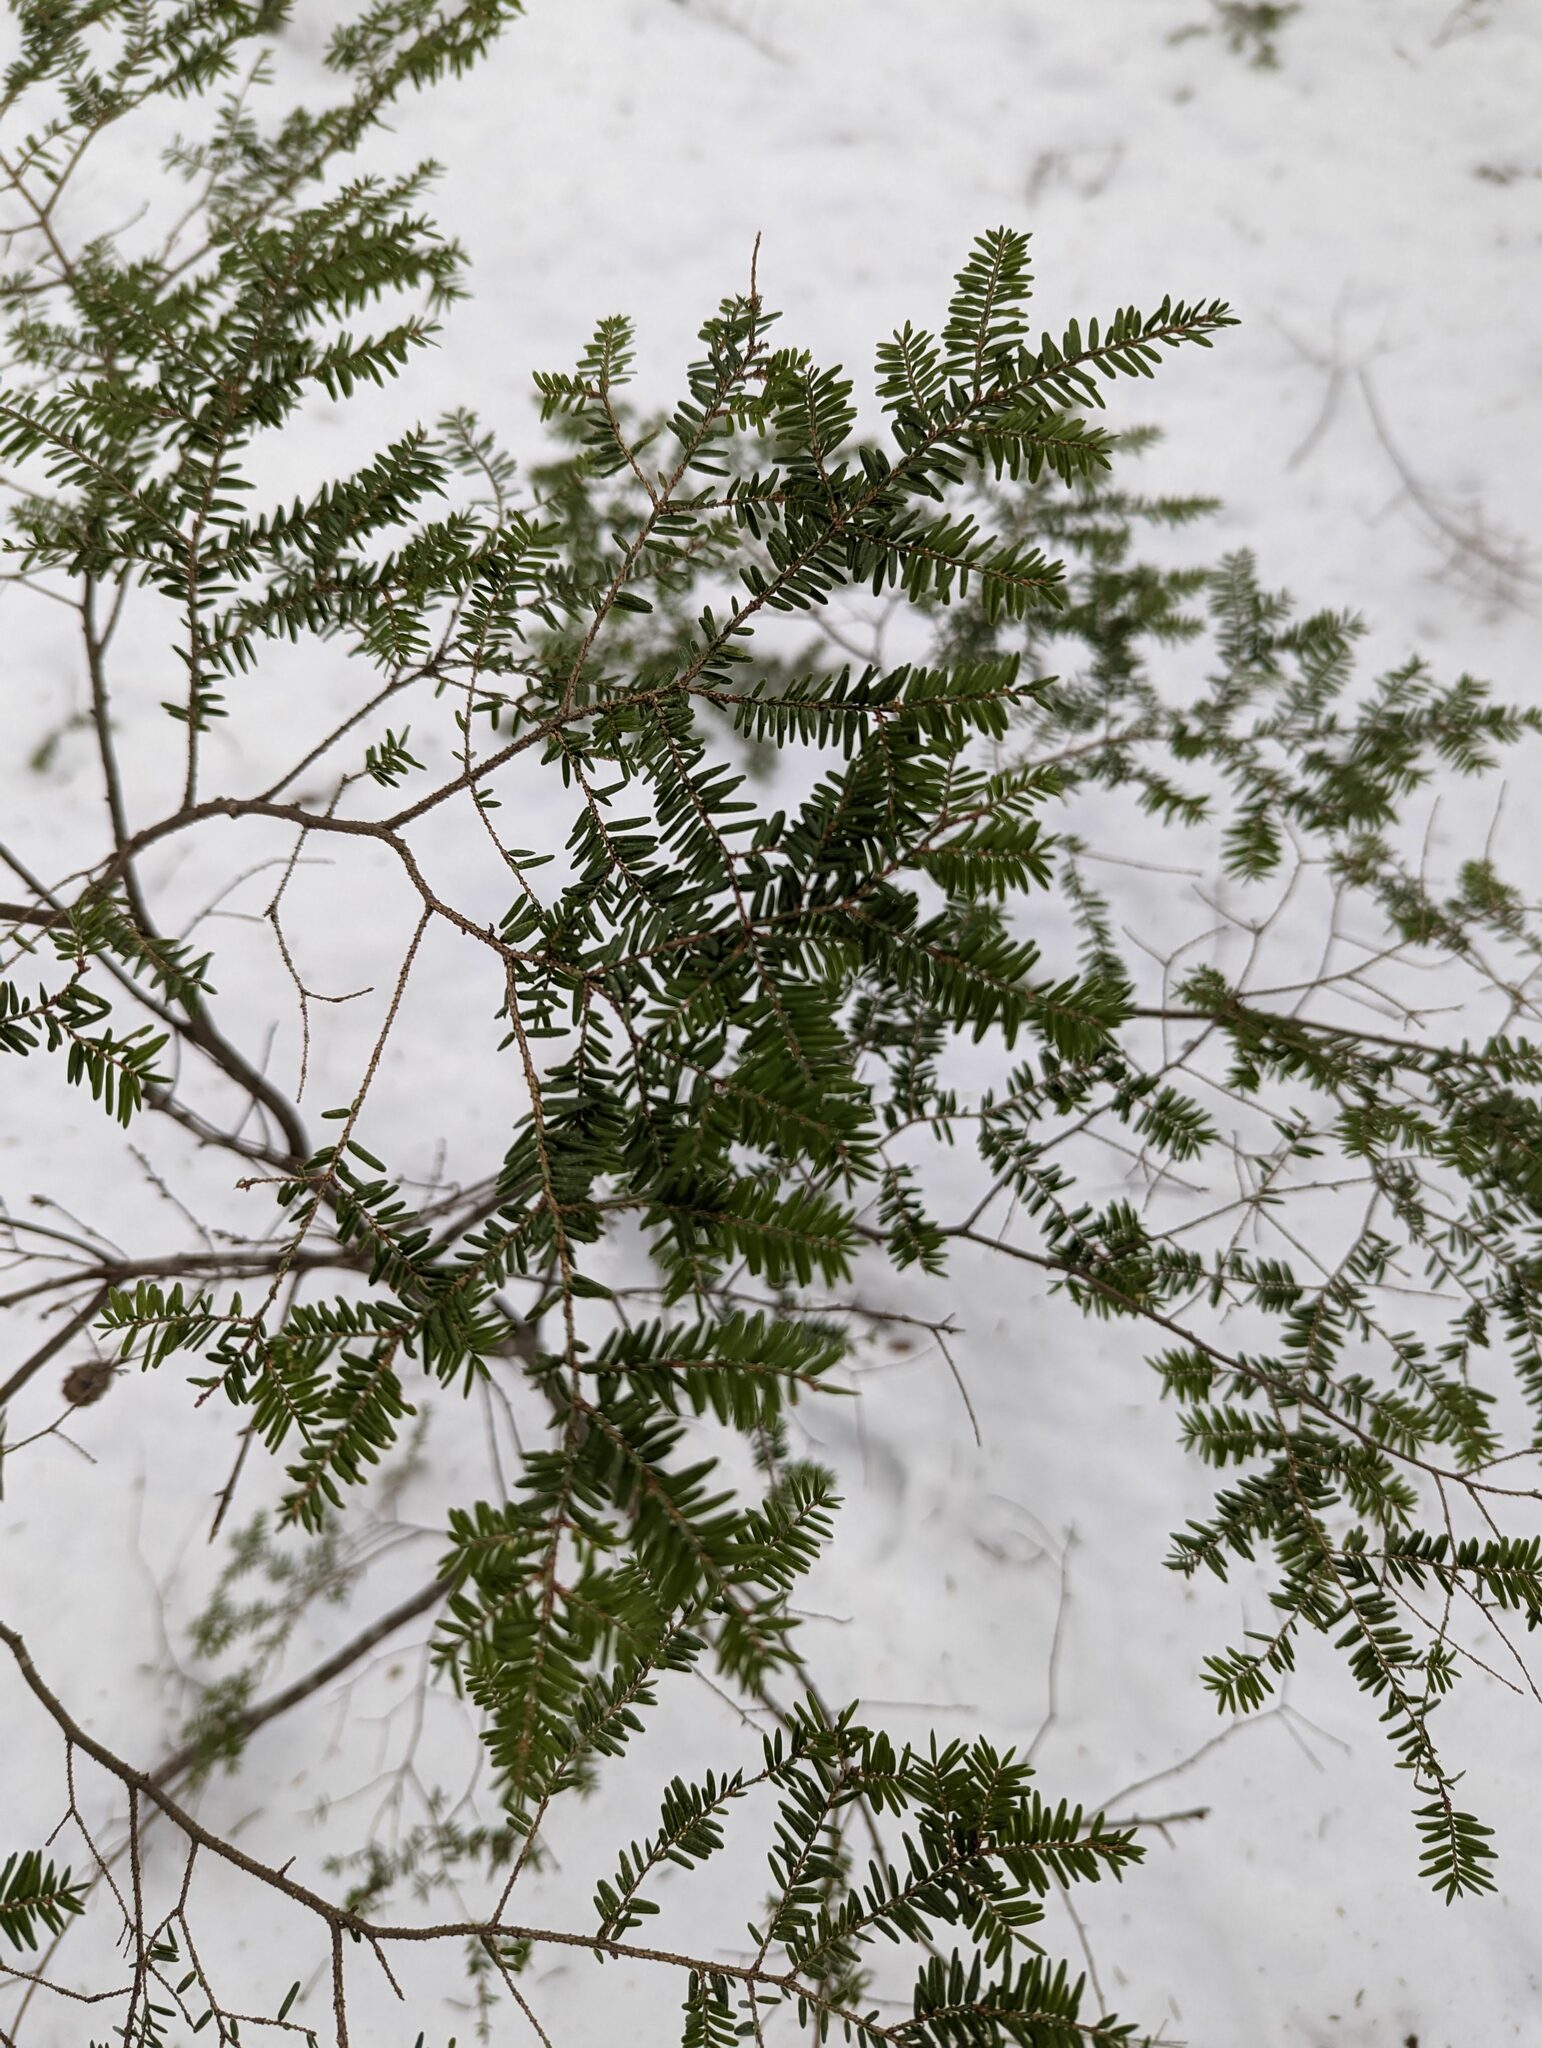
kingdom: Plantae
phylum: Tracheophyta
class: Pinopsida
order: Pinales
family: Pinaceae
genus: Tsuga
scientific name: Tsuga canadensis
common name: Eastern hemlock
